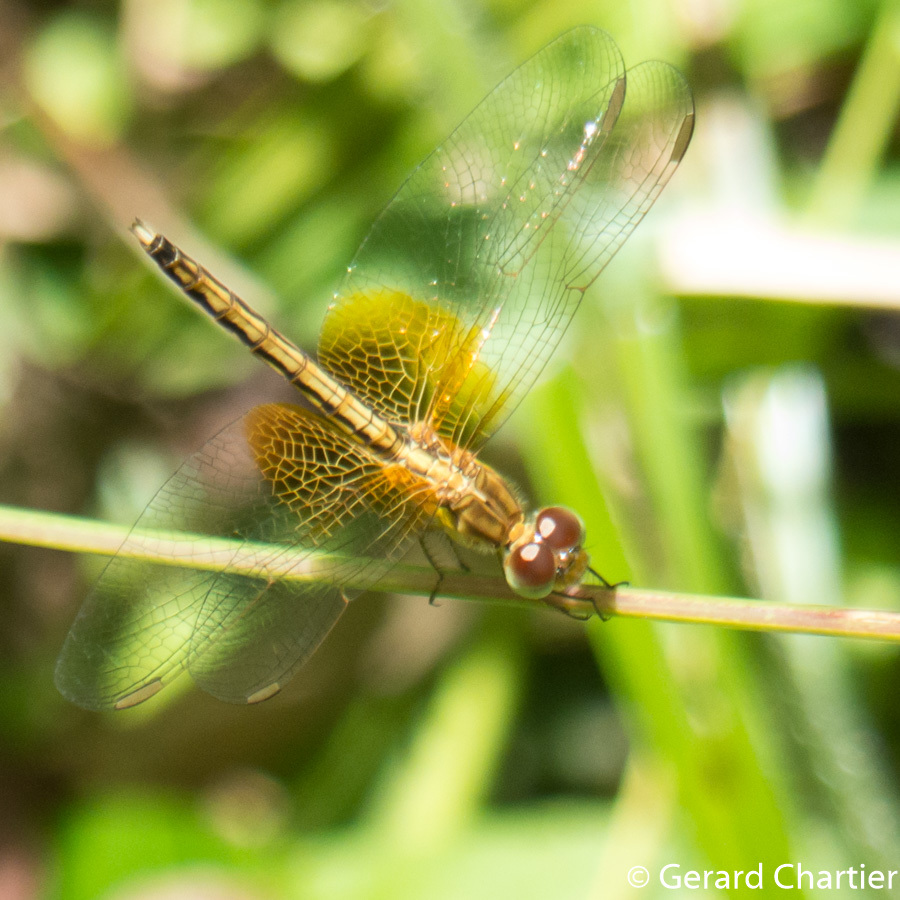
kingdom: Animalia
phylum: Arthropoda
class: Insecta
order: Odonata
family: Libellulidae
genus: Neurothemis
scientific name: Neurothemis intermedia
